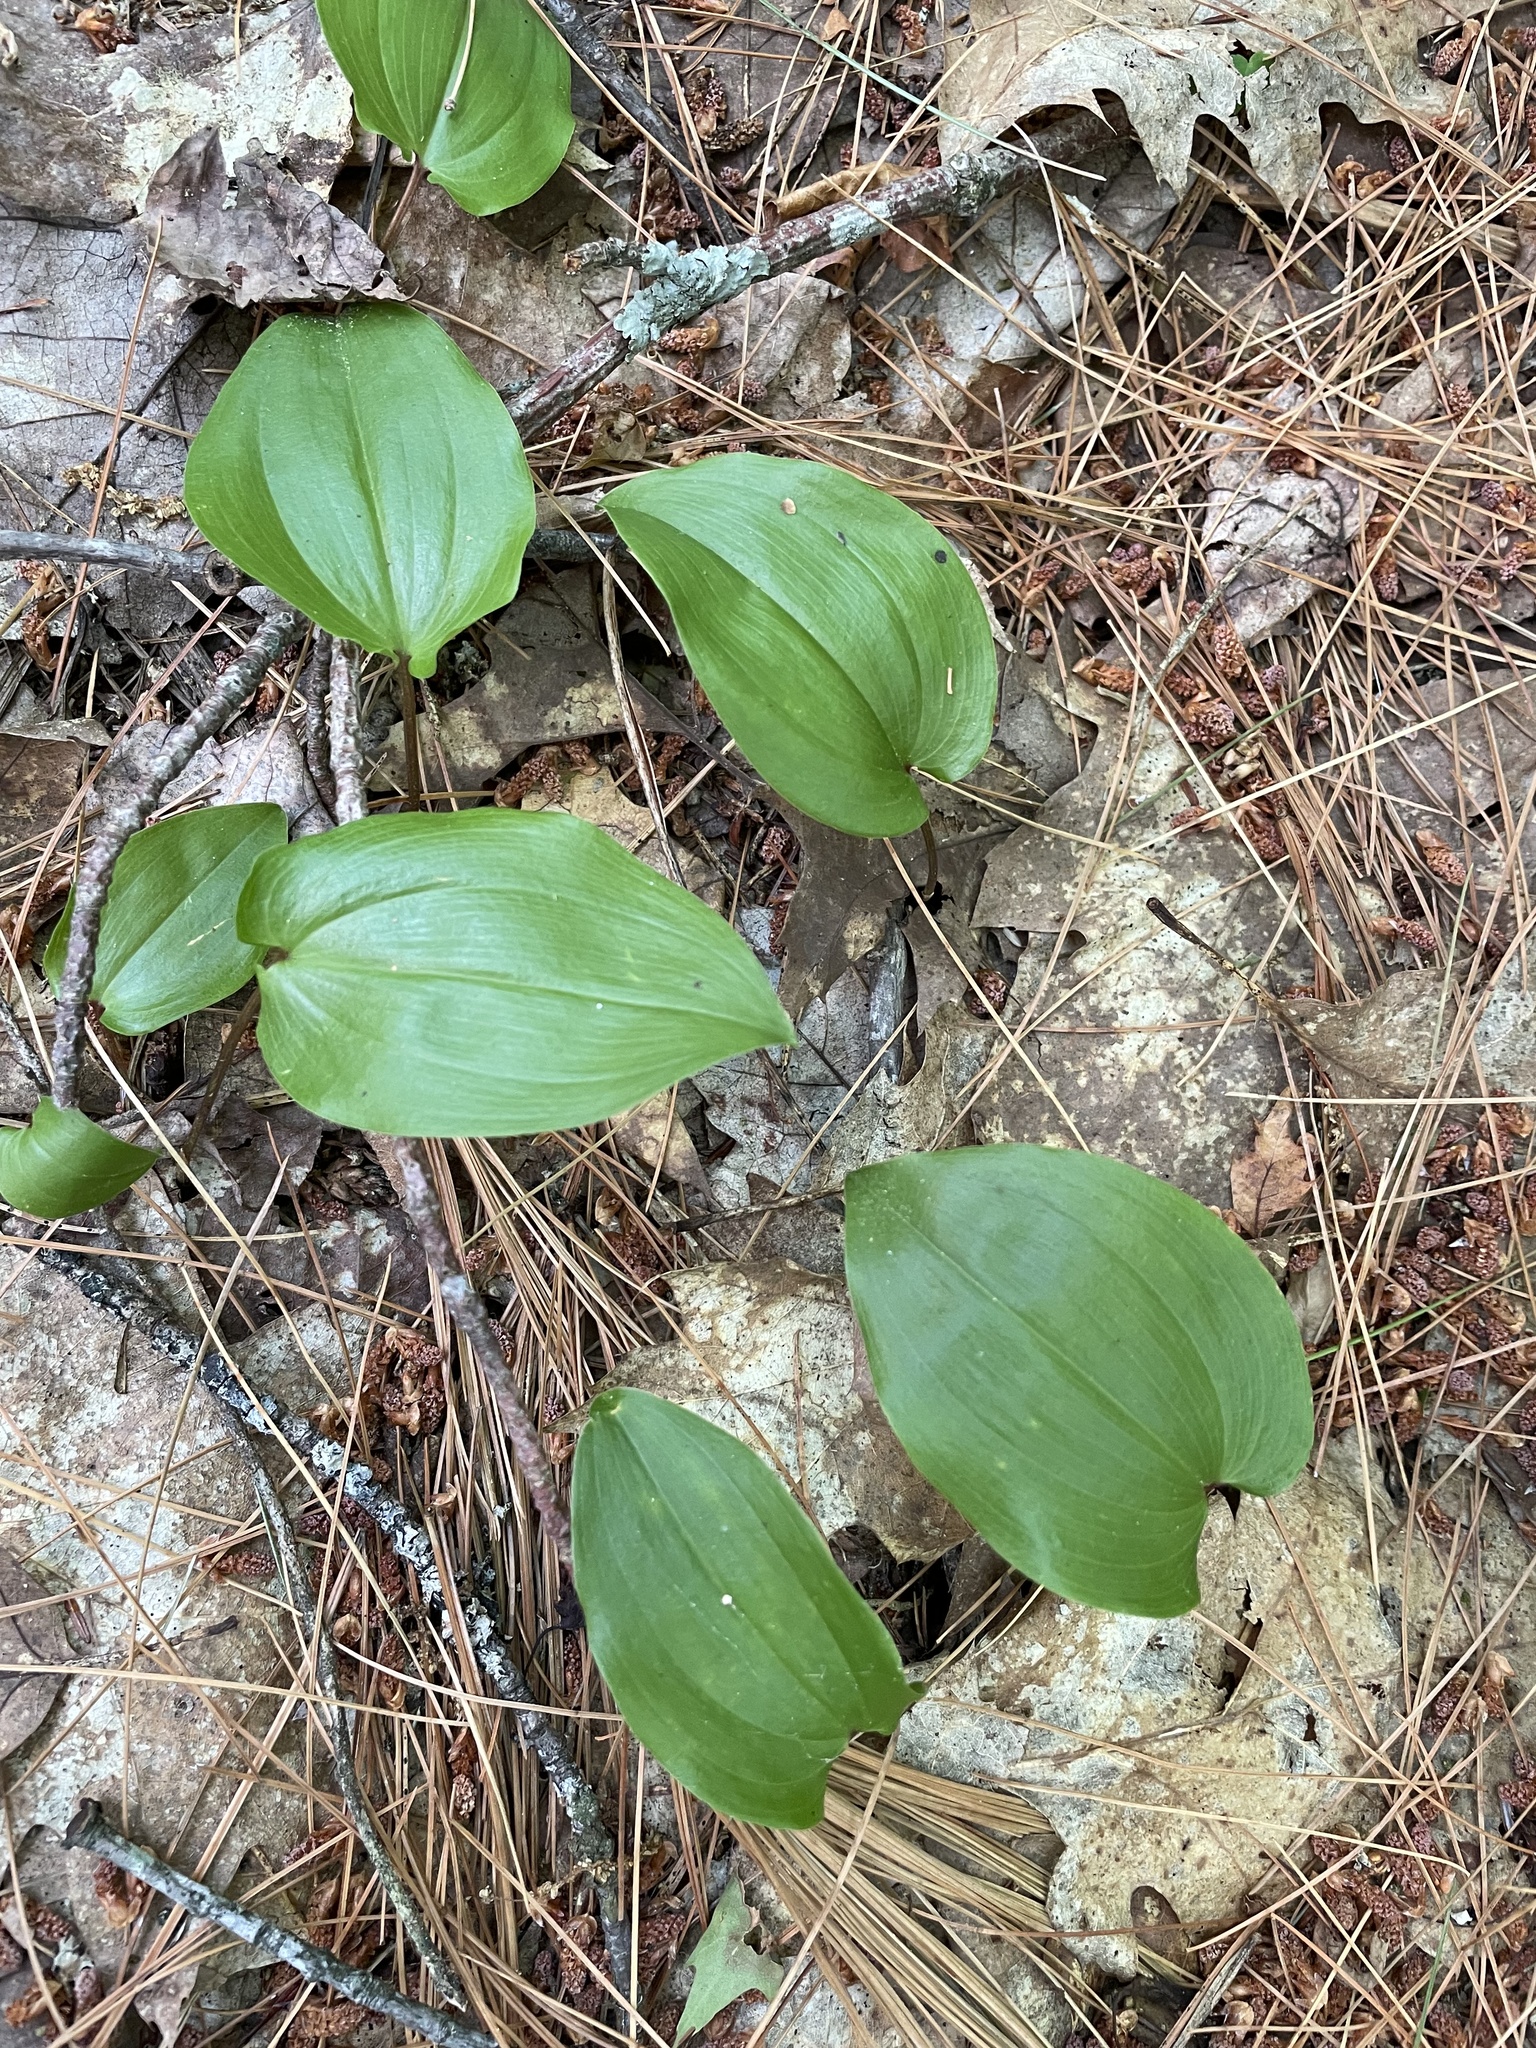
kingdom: Plantae
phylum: Tracheophyta
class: Liliopsida
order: Asparagales
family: Asparagaceae
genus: Maianthemum
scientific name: Maianthemum canadense
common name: False lily-of-the-valley
